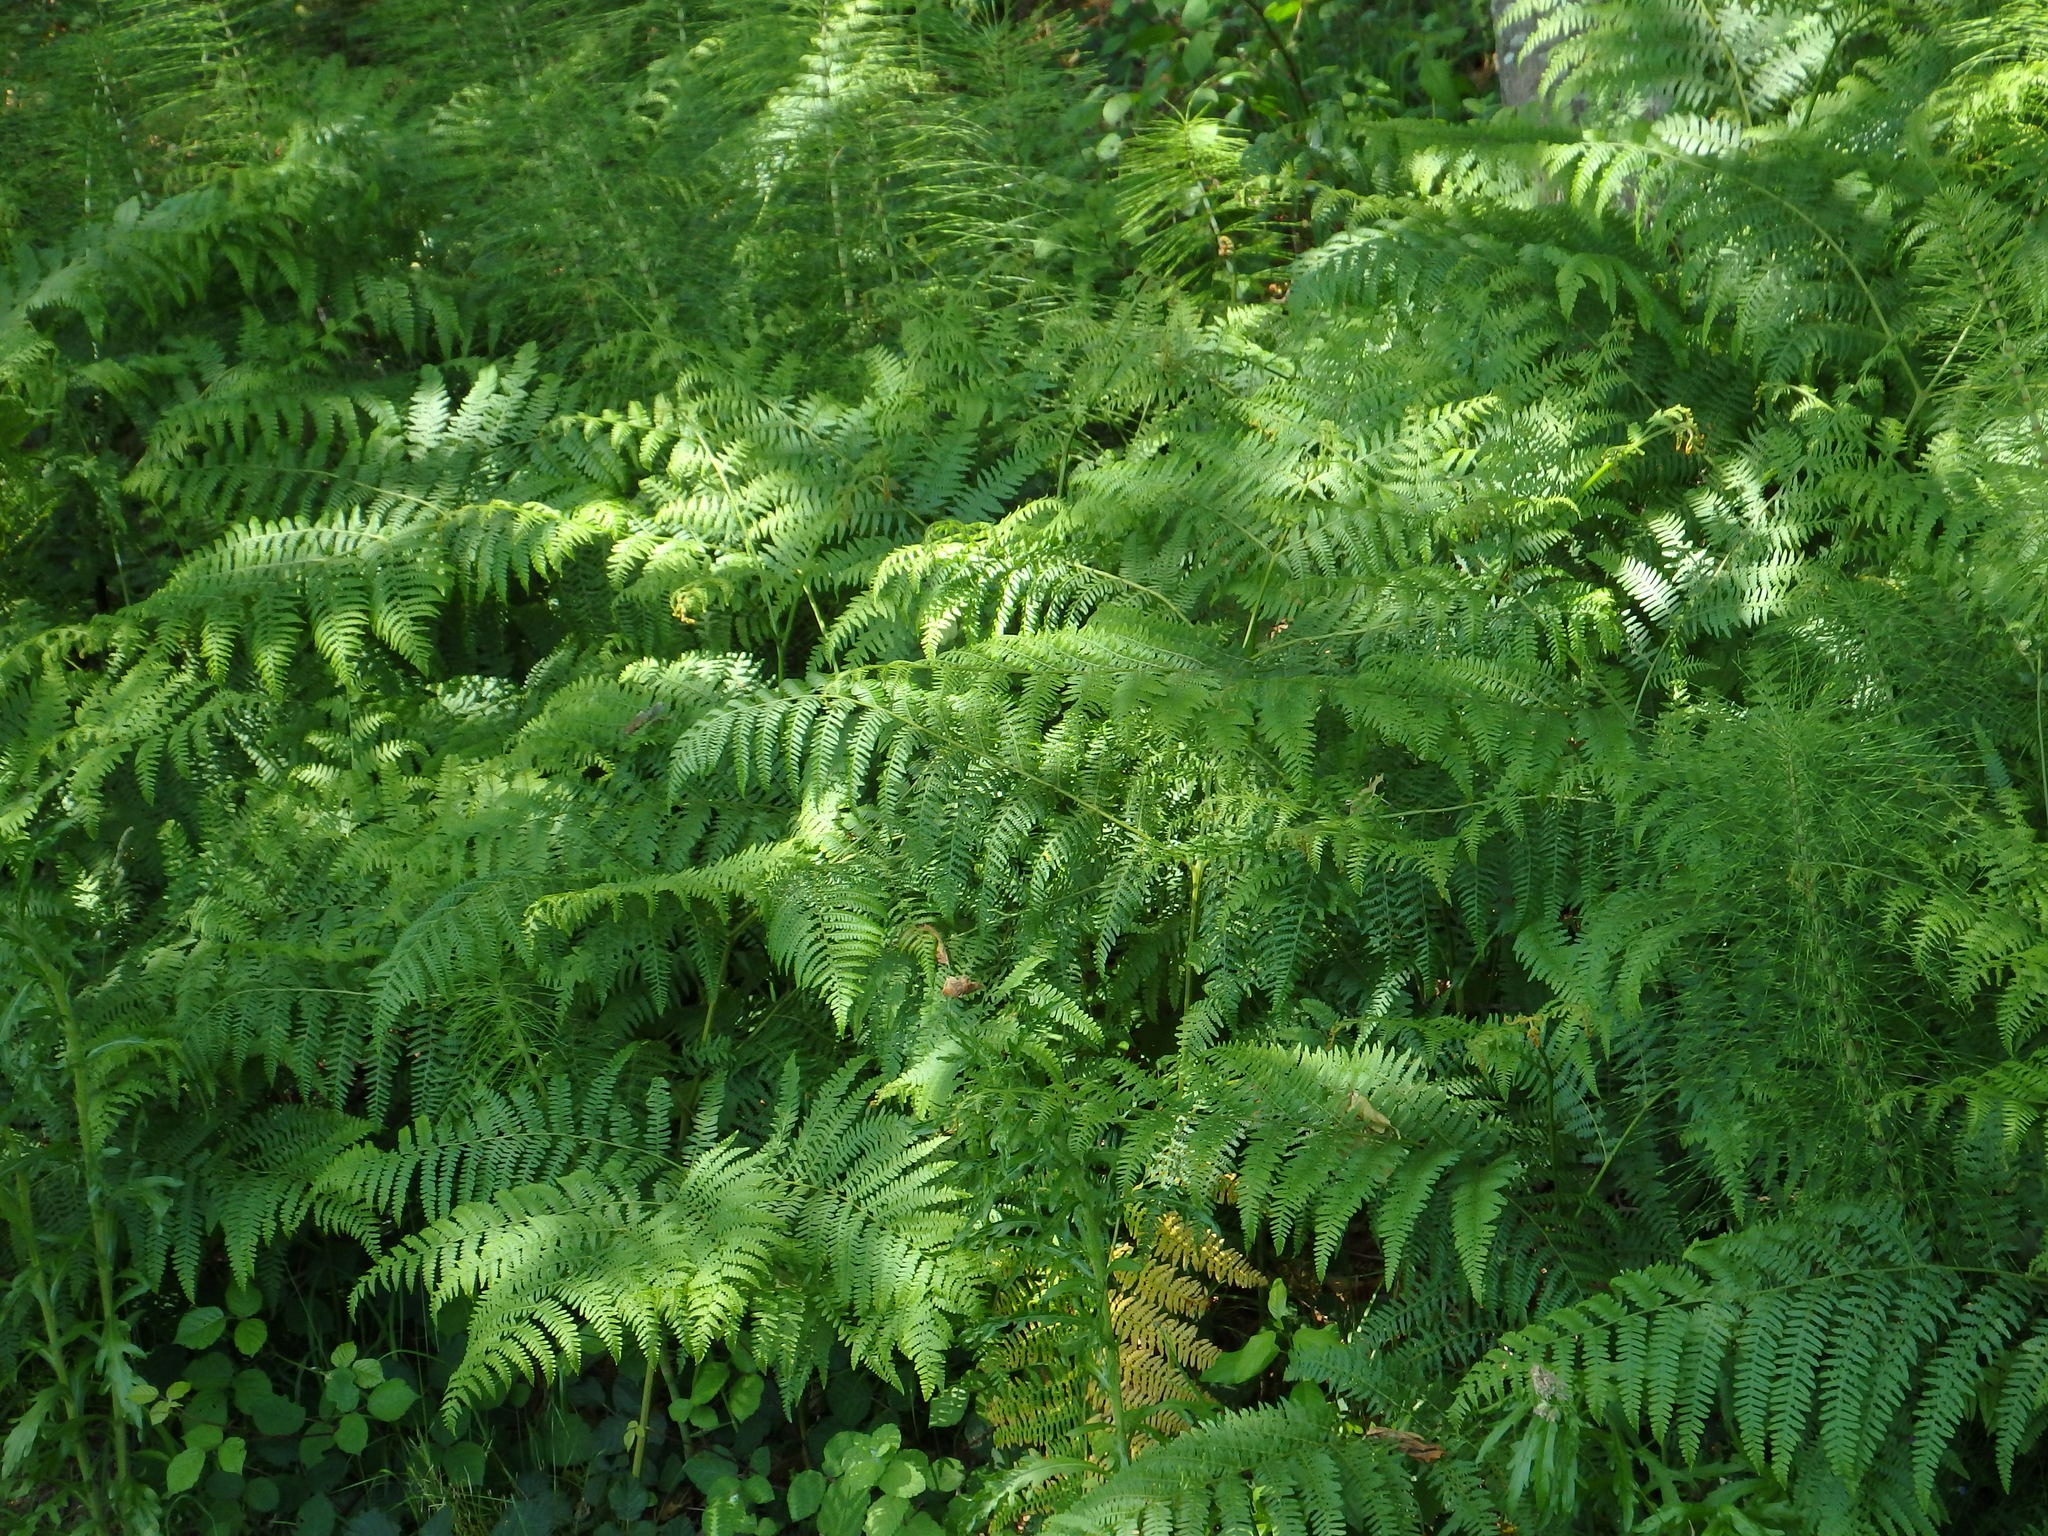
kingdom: Plantae
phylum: Tracheophyta
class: Polypodiopsida
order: Polypodiales
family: Dennstaedtiaceae
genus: Pteridium
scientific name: Pteridium aquilinum
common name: Bracken
